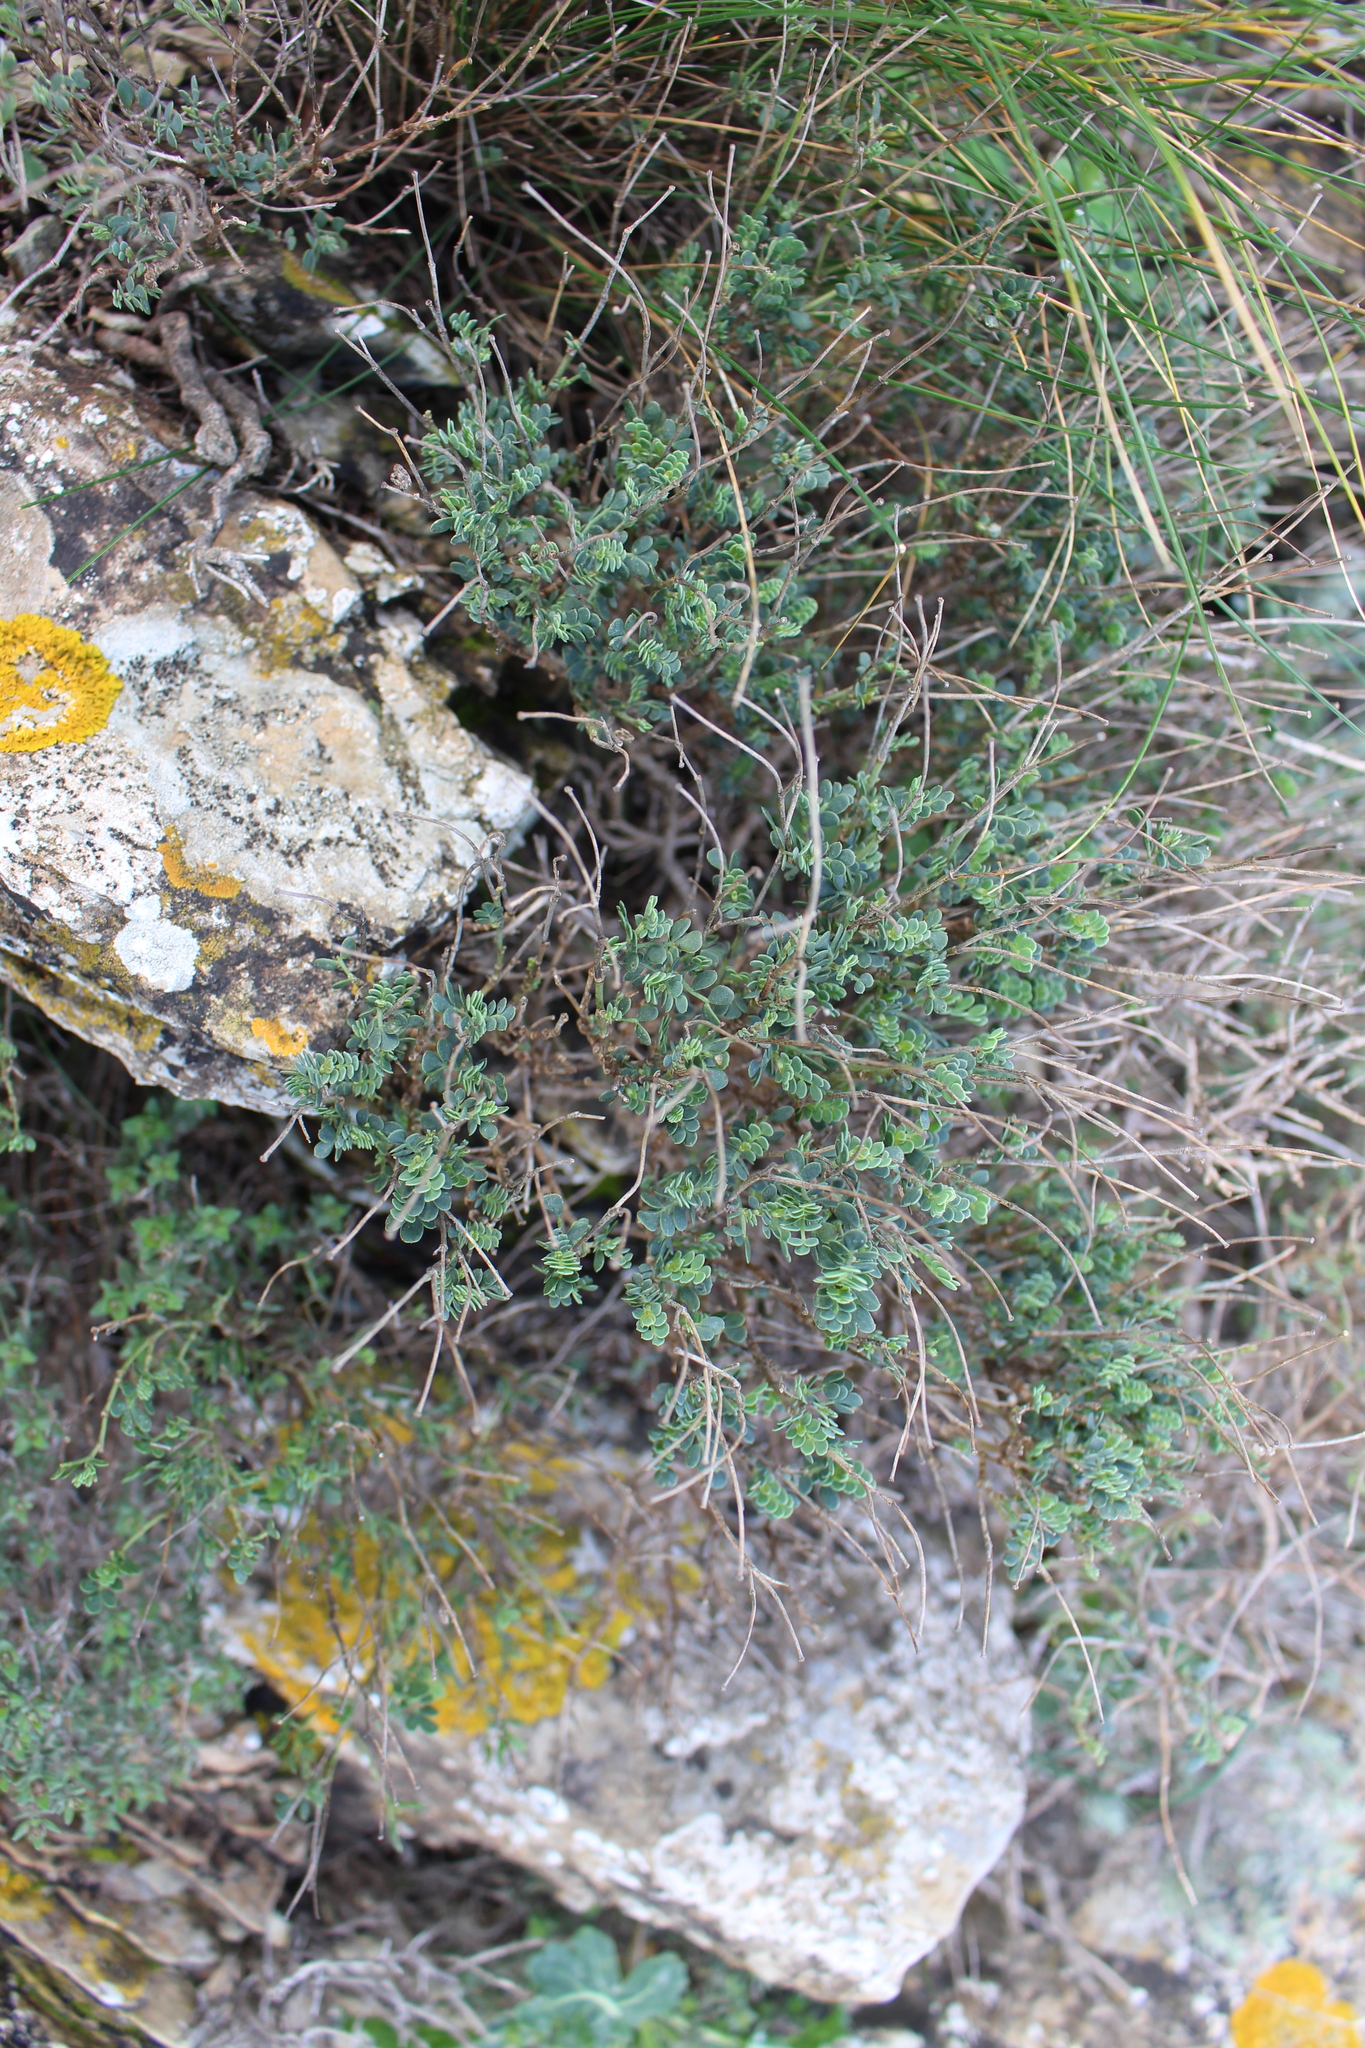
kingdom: Plantae
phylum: Tracheophyta
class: Magnoliopsida
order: Fabales
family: Fabaceae
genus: Coronilla
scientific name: Coronilla minima
